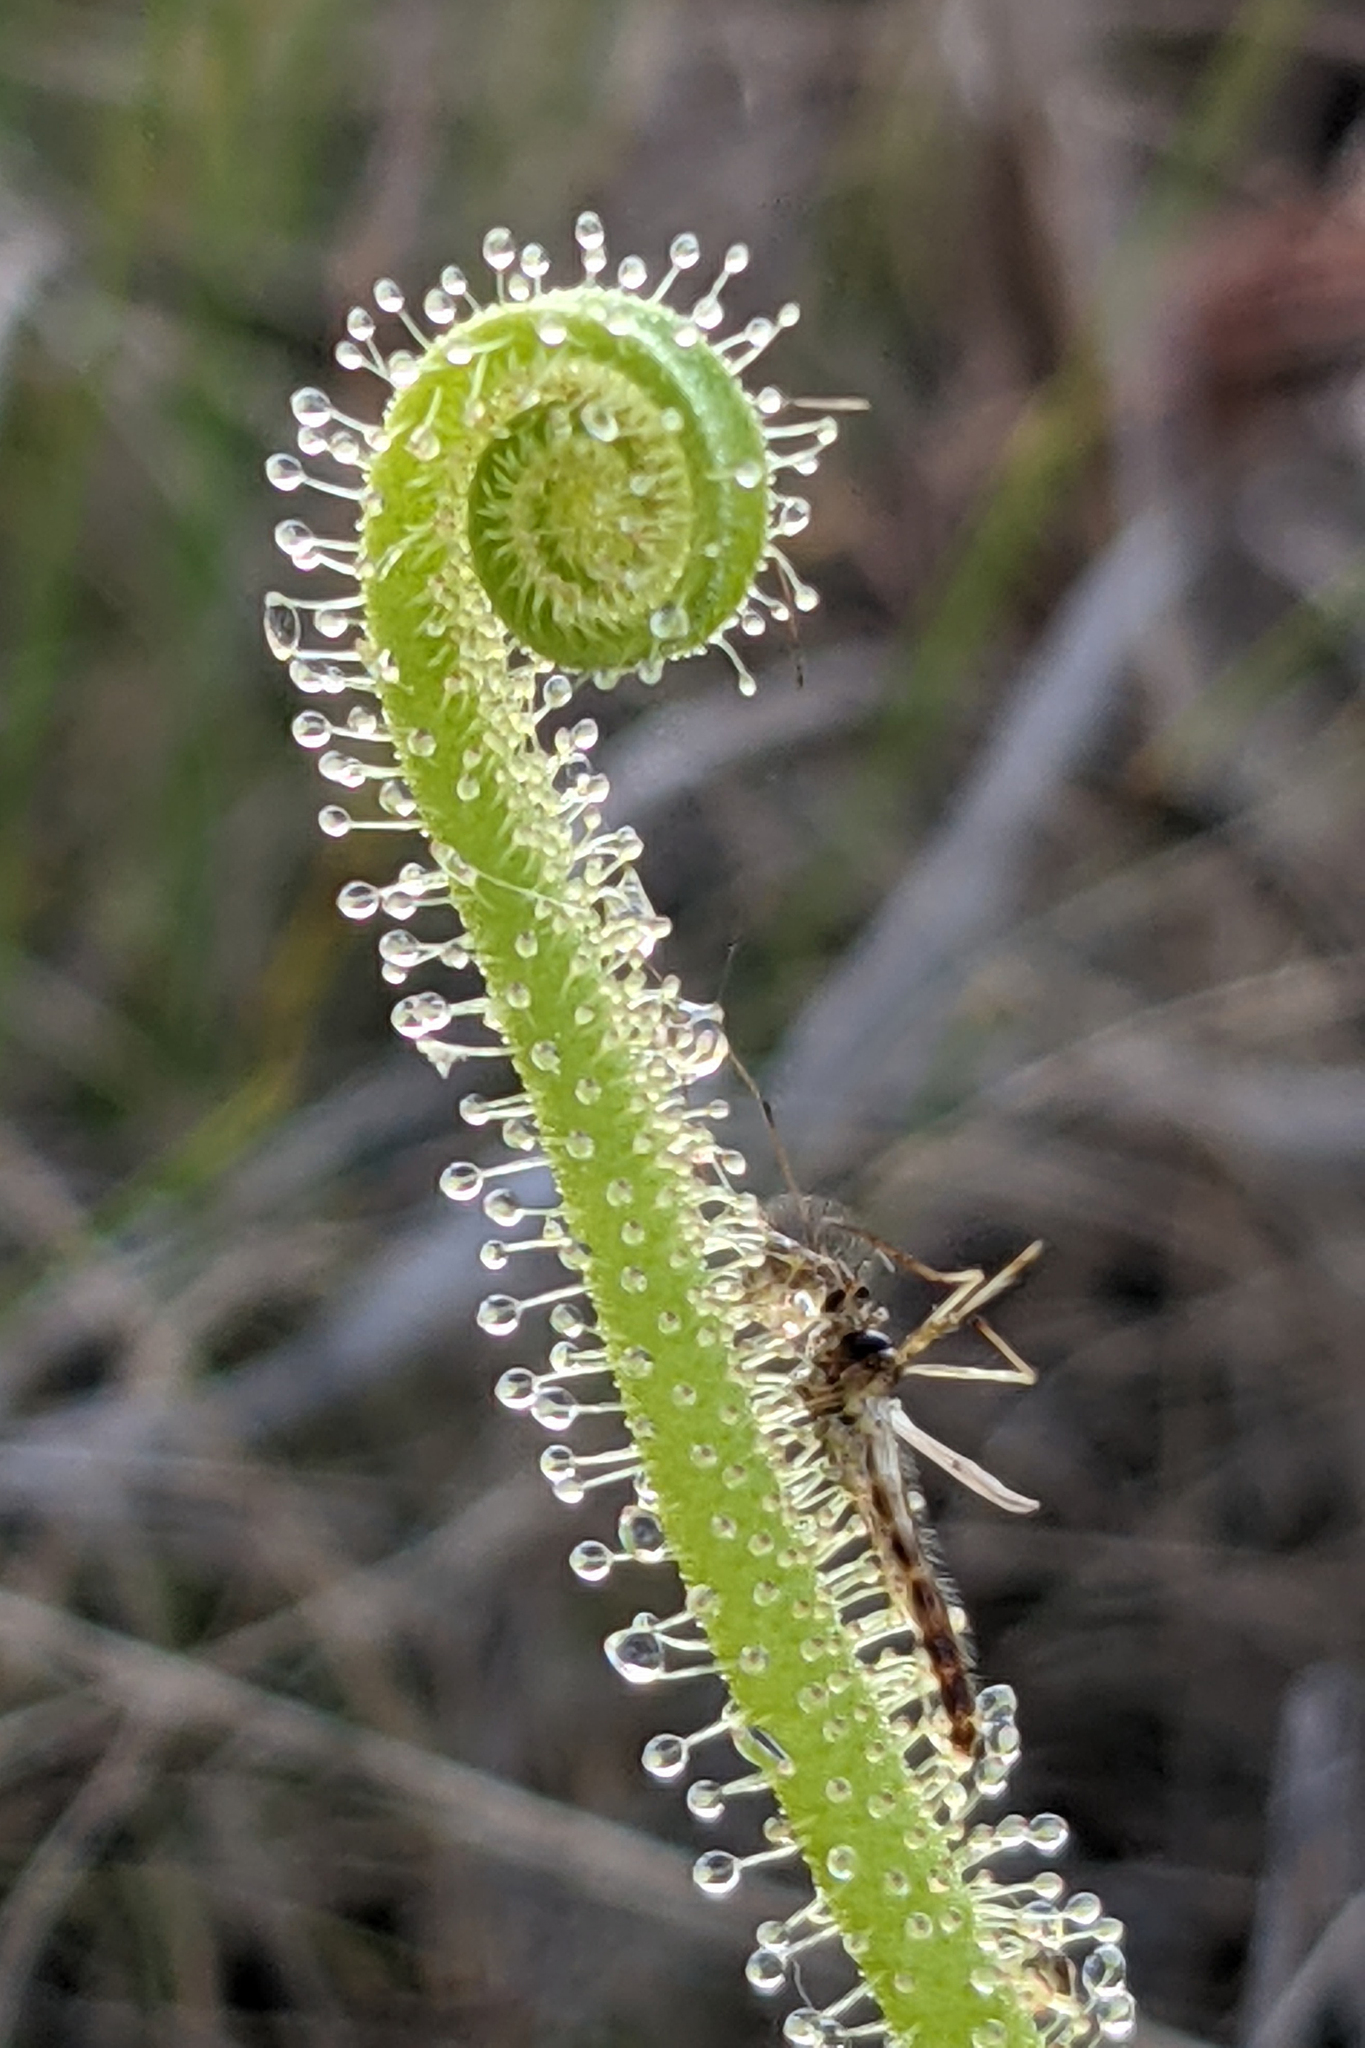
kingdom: Plantae
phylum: Tracheophyta
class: Magnoliopsida
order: Caryophyllales
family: Droseraceae
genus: Drosera
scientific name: Drosera filiformis
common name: Dew-thread
